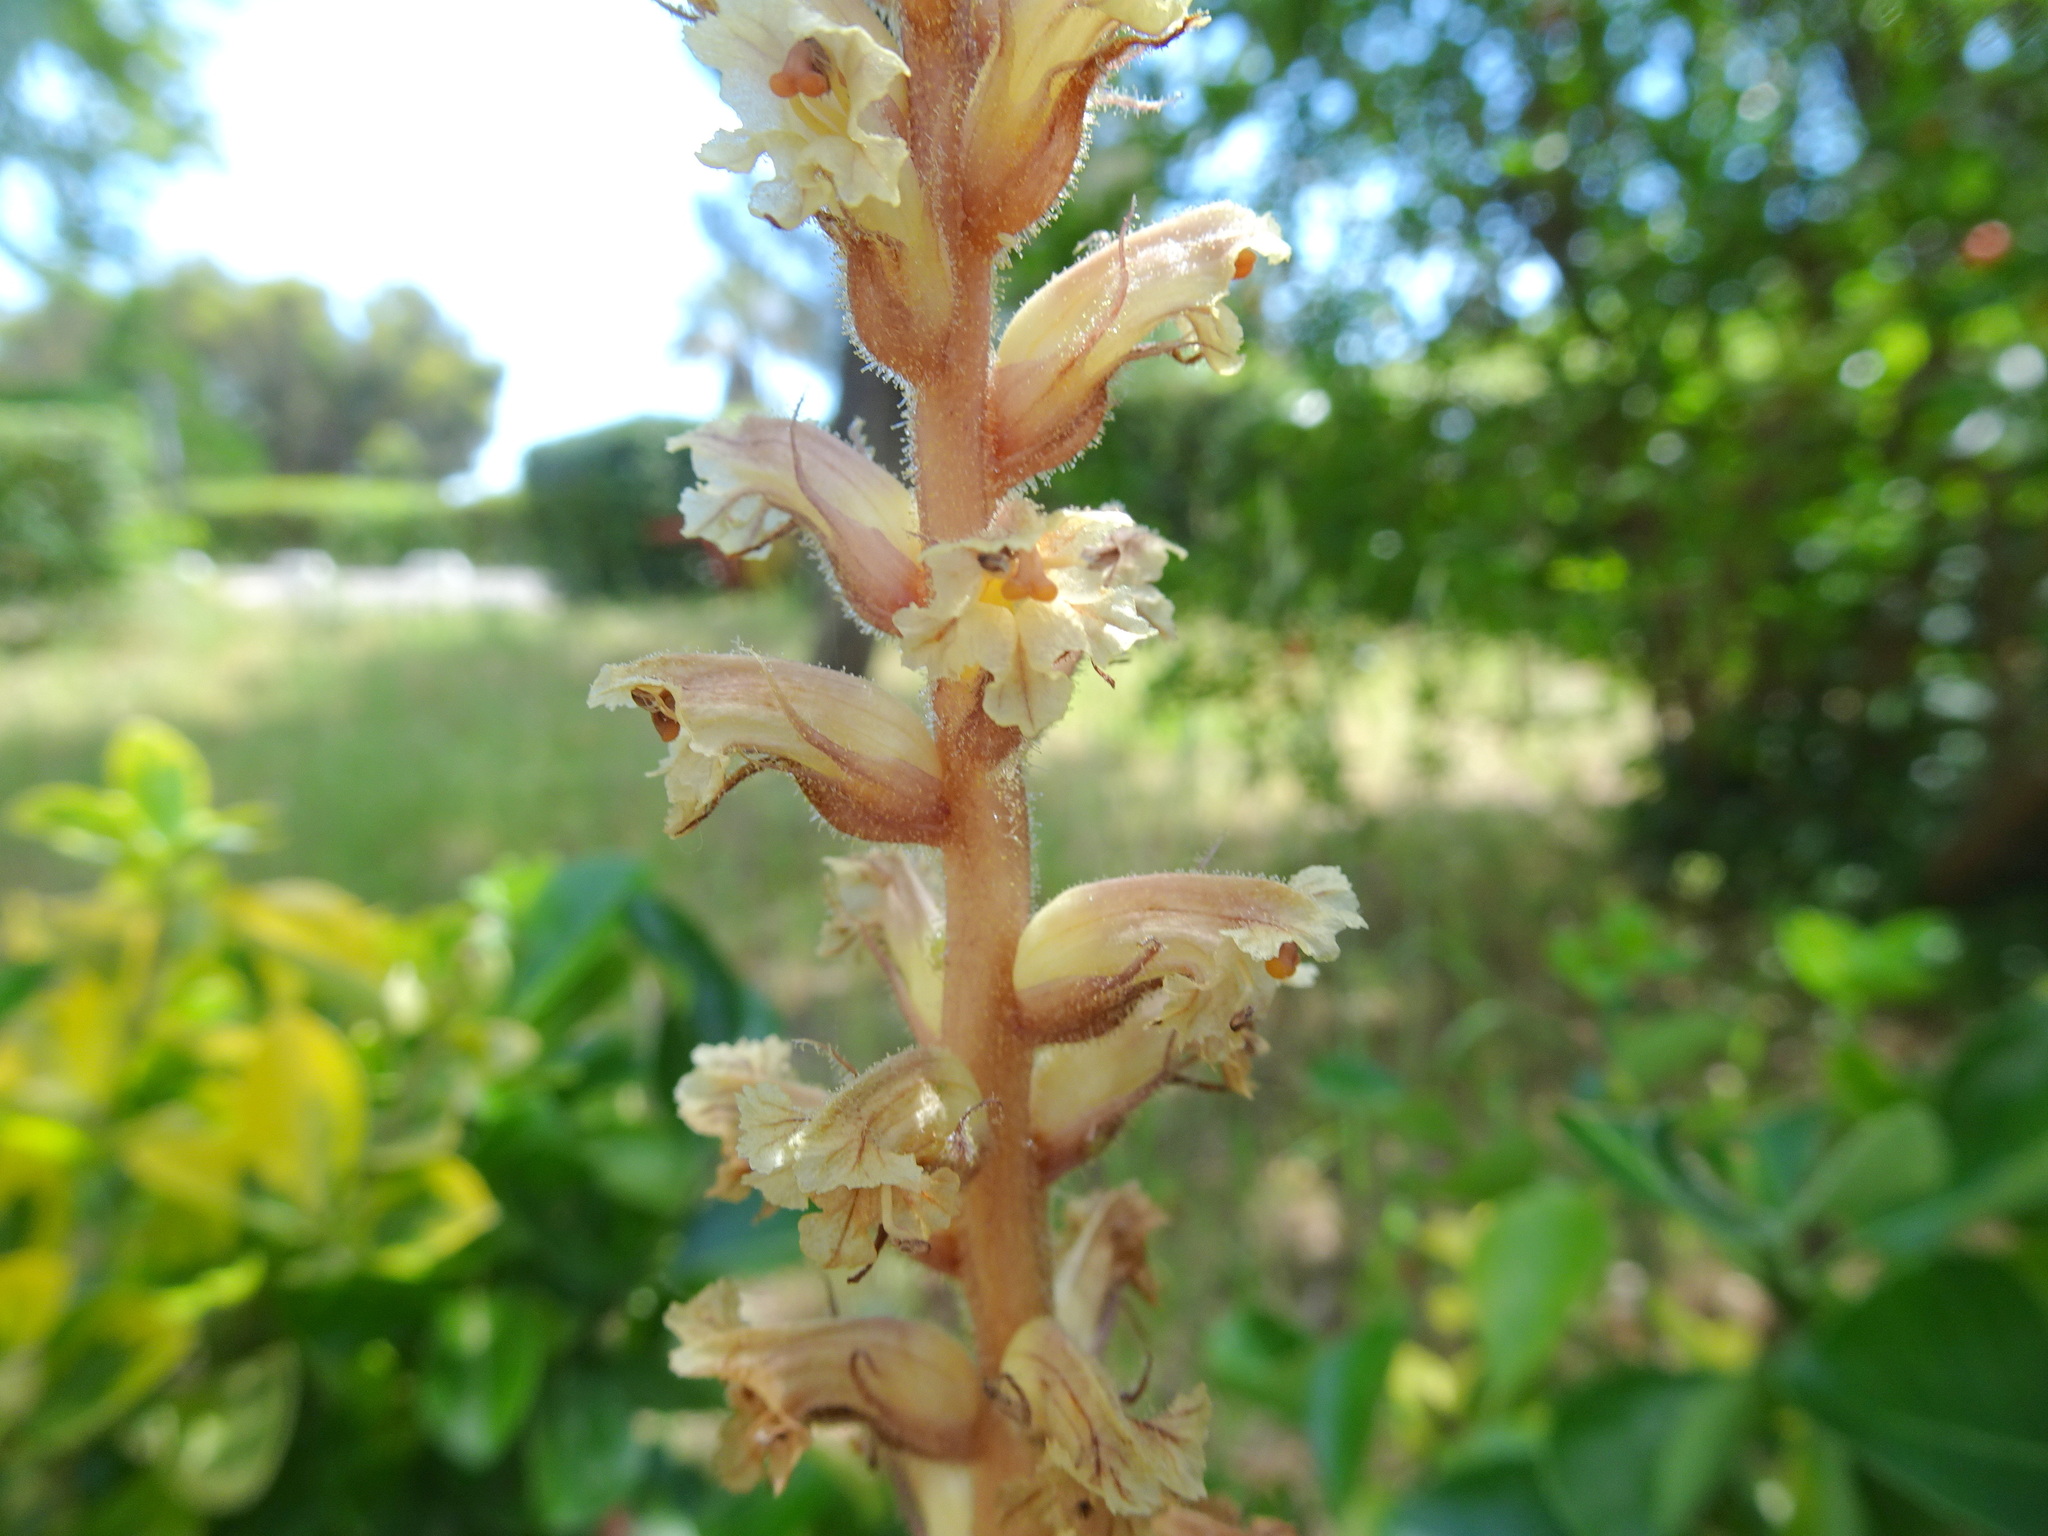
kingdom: Plantae
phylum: Tracheophyta
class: Magnoliopsida
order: Lamiales
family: Orobanchaceae
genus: Orobanche
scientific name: Orobanche hederae
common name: Ivy broomrape
